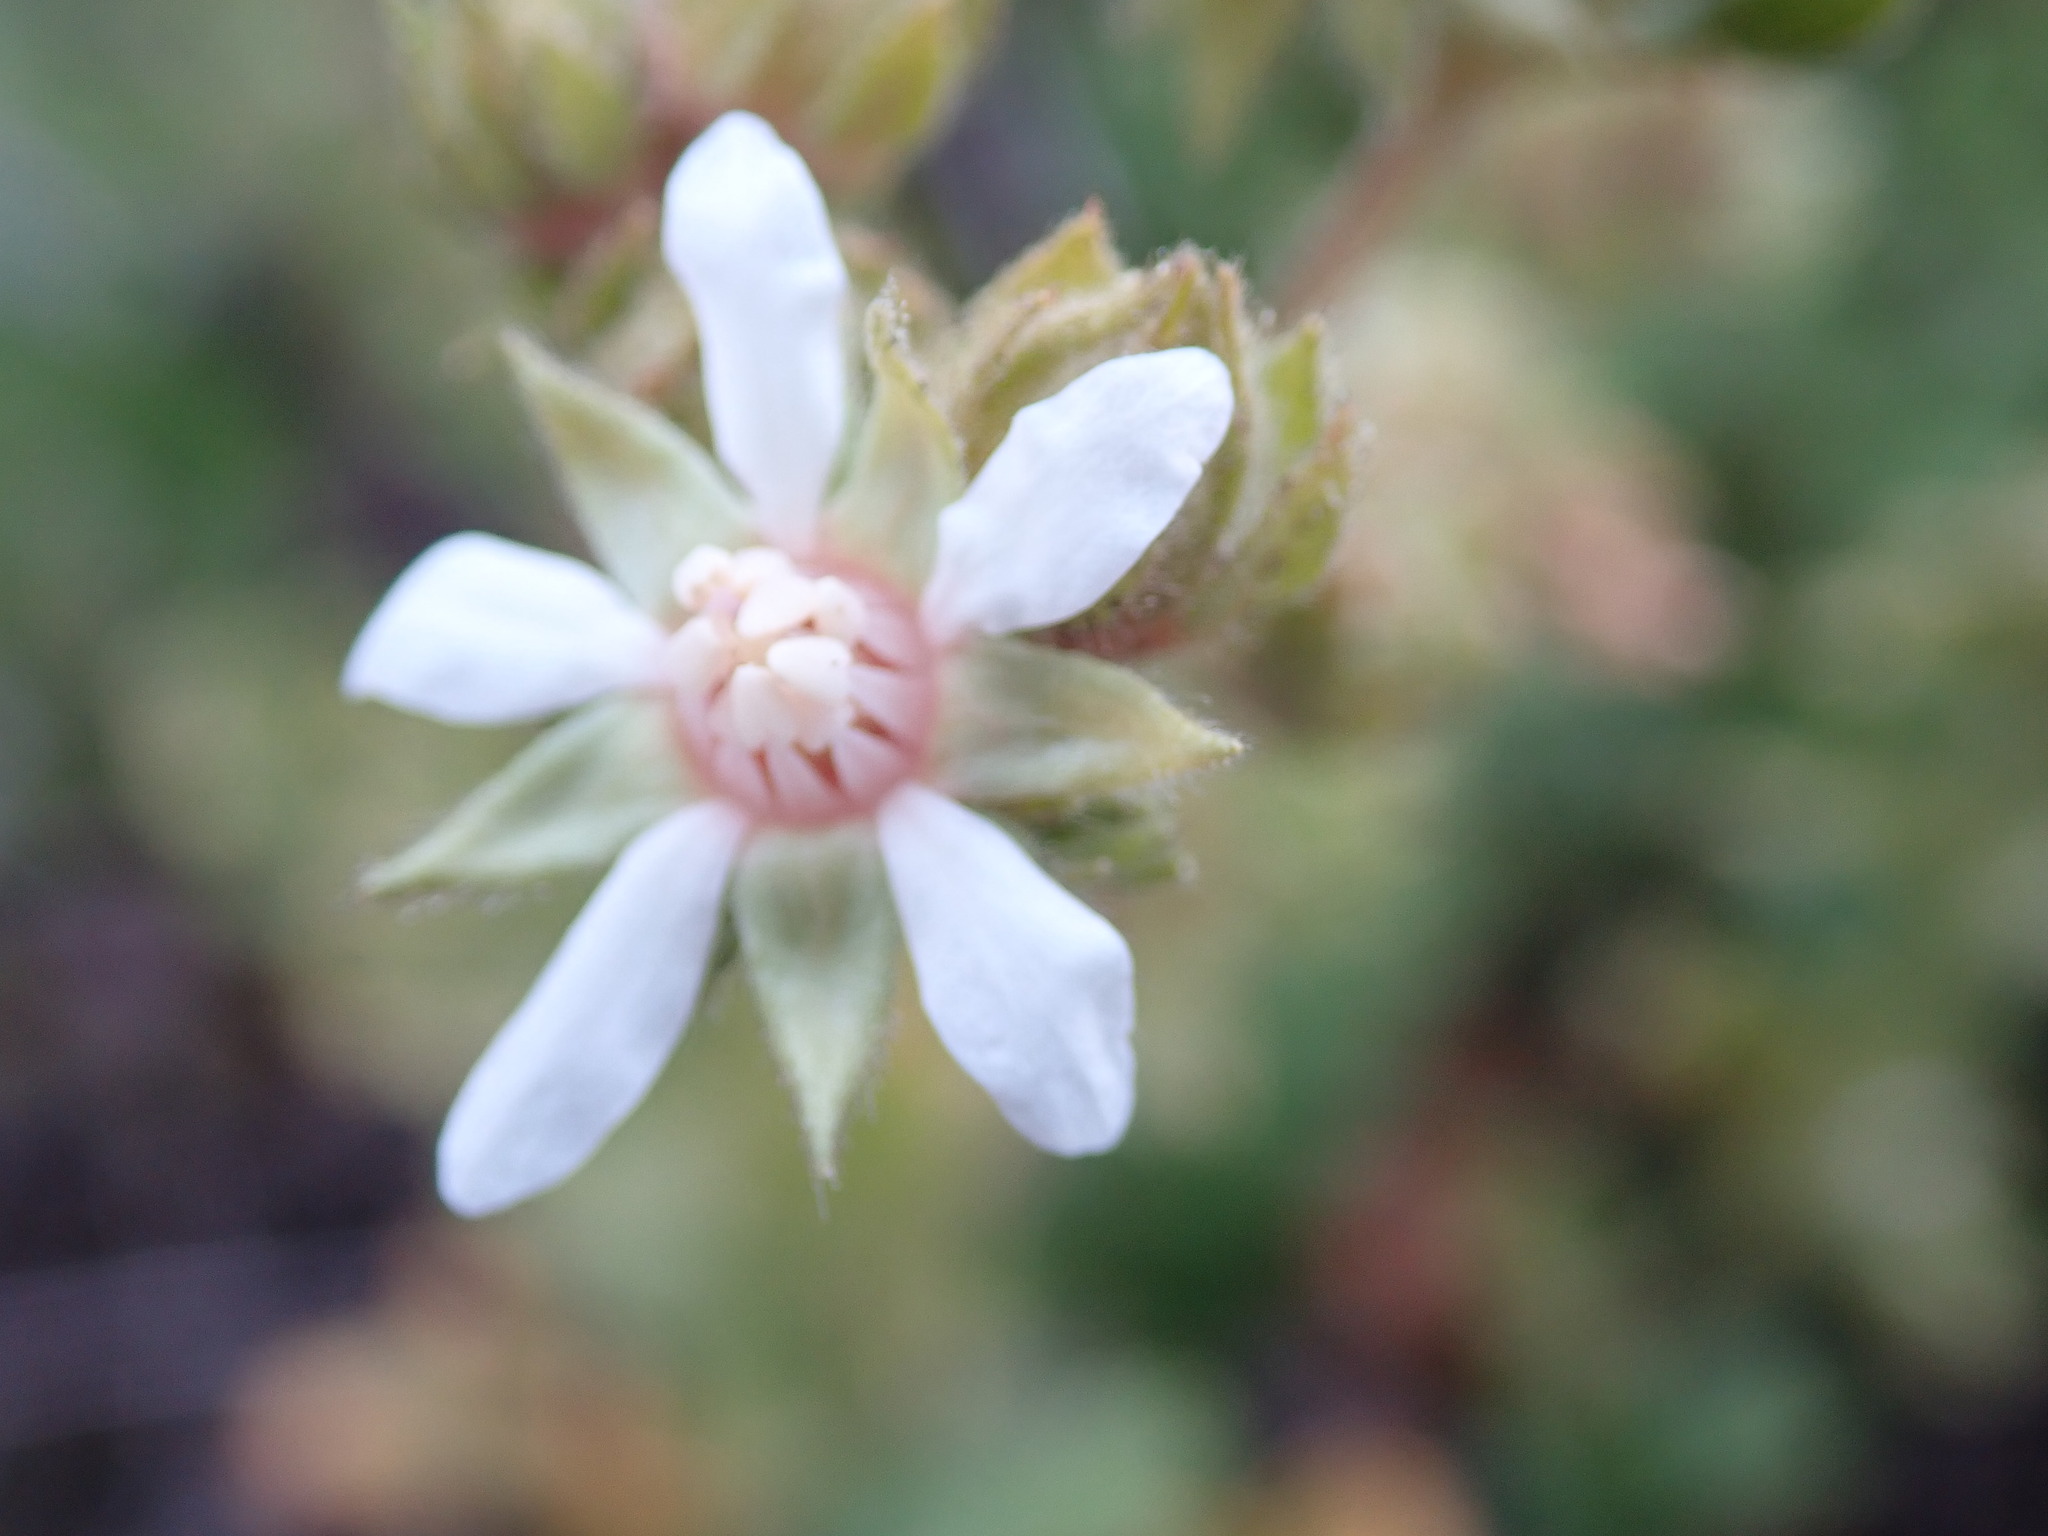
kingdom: Plantae
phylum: Tracheophyta
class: Magnoliopsida
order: Rosales
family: Rosaceae
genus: Potentilla
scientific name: Potentilla
